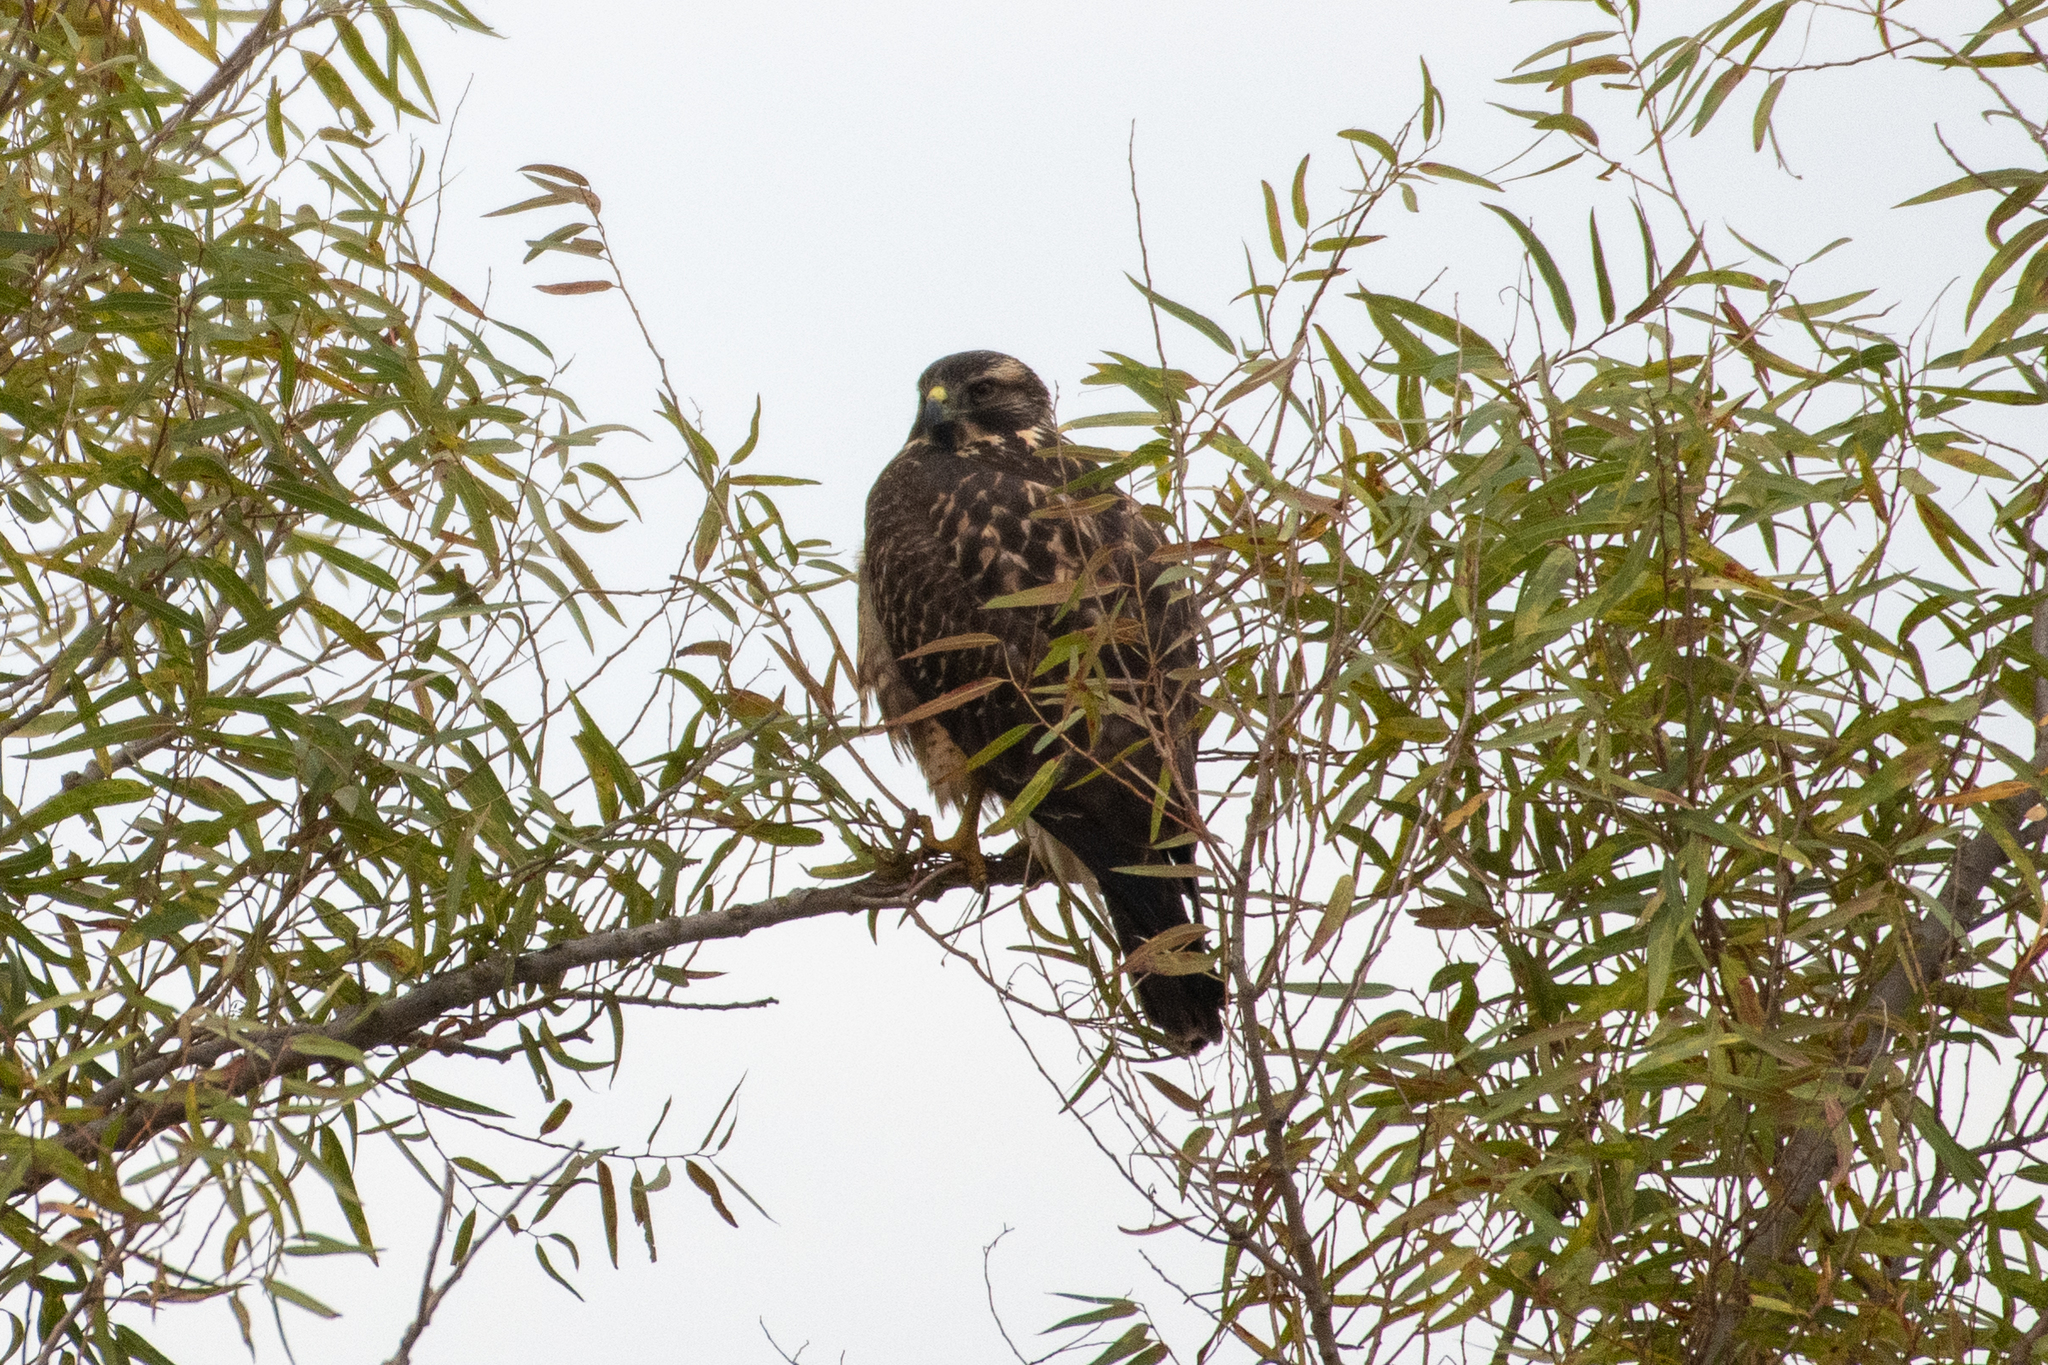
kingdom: Animalia
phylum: Chordata
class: Aves
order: Accipitriformes
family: Accipitridae
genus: Buteo
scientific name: Buteo swainsoni
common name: Swainson's hawk
